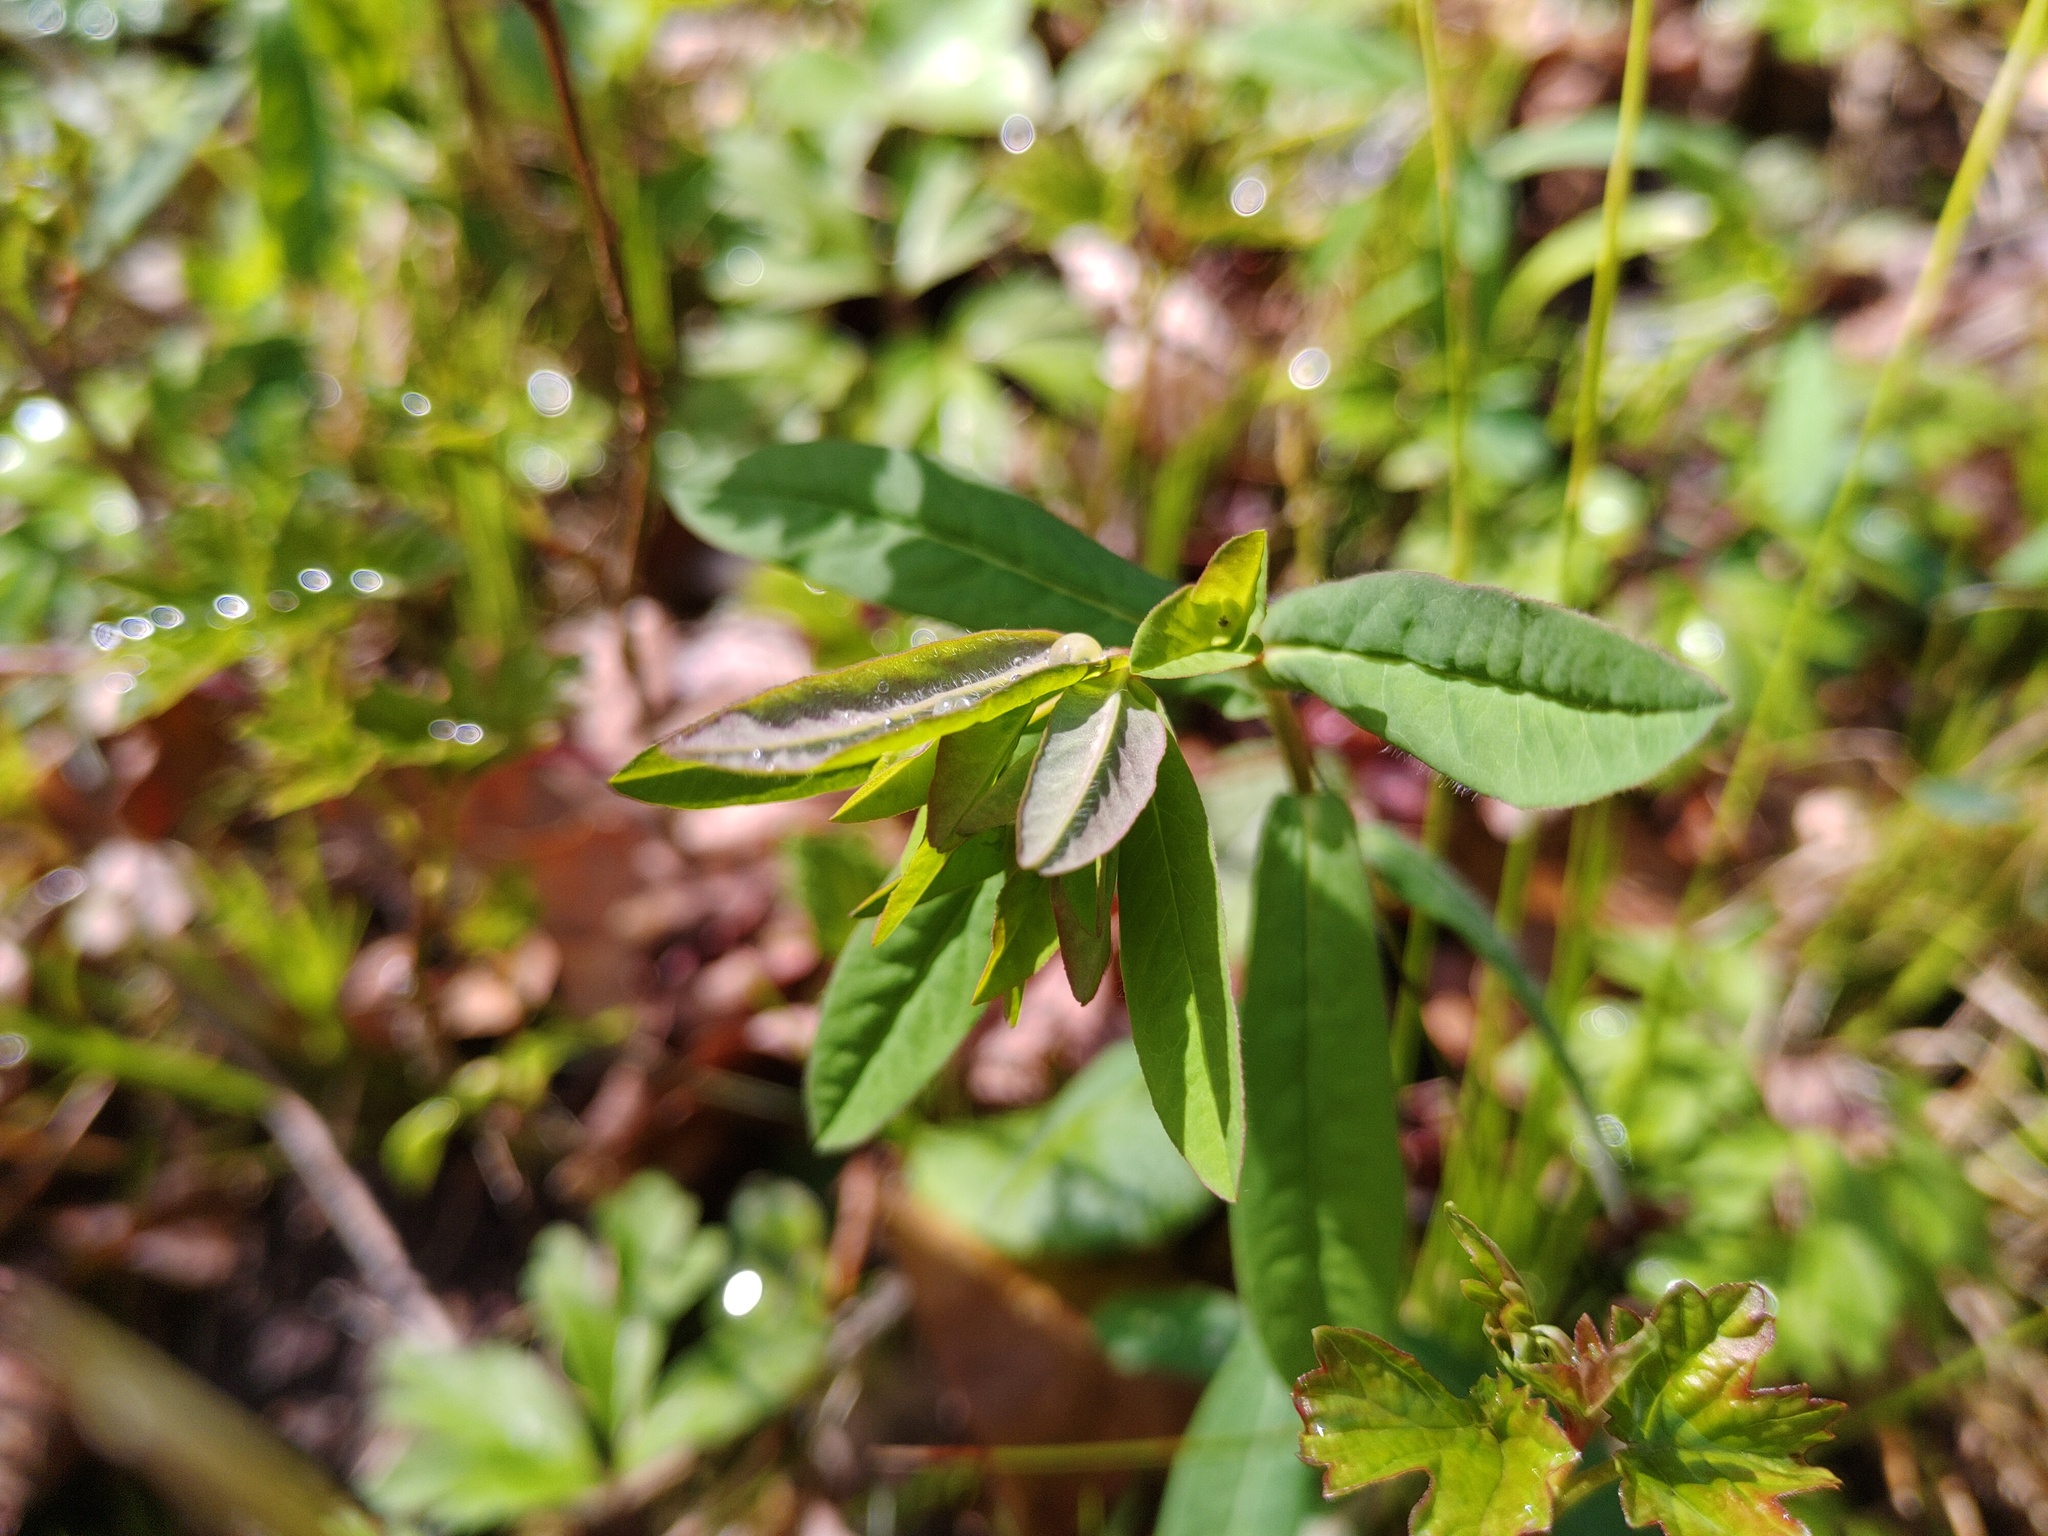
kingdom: Plantae
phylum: Tracheophyta
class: Magnoliopsida
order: Malpighiales
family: Euphorbiaceae
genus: Euphorbia
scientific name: Euphorbia dulcis
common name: Sweet spurge
